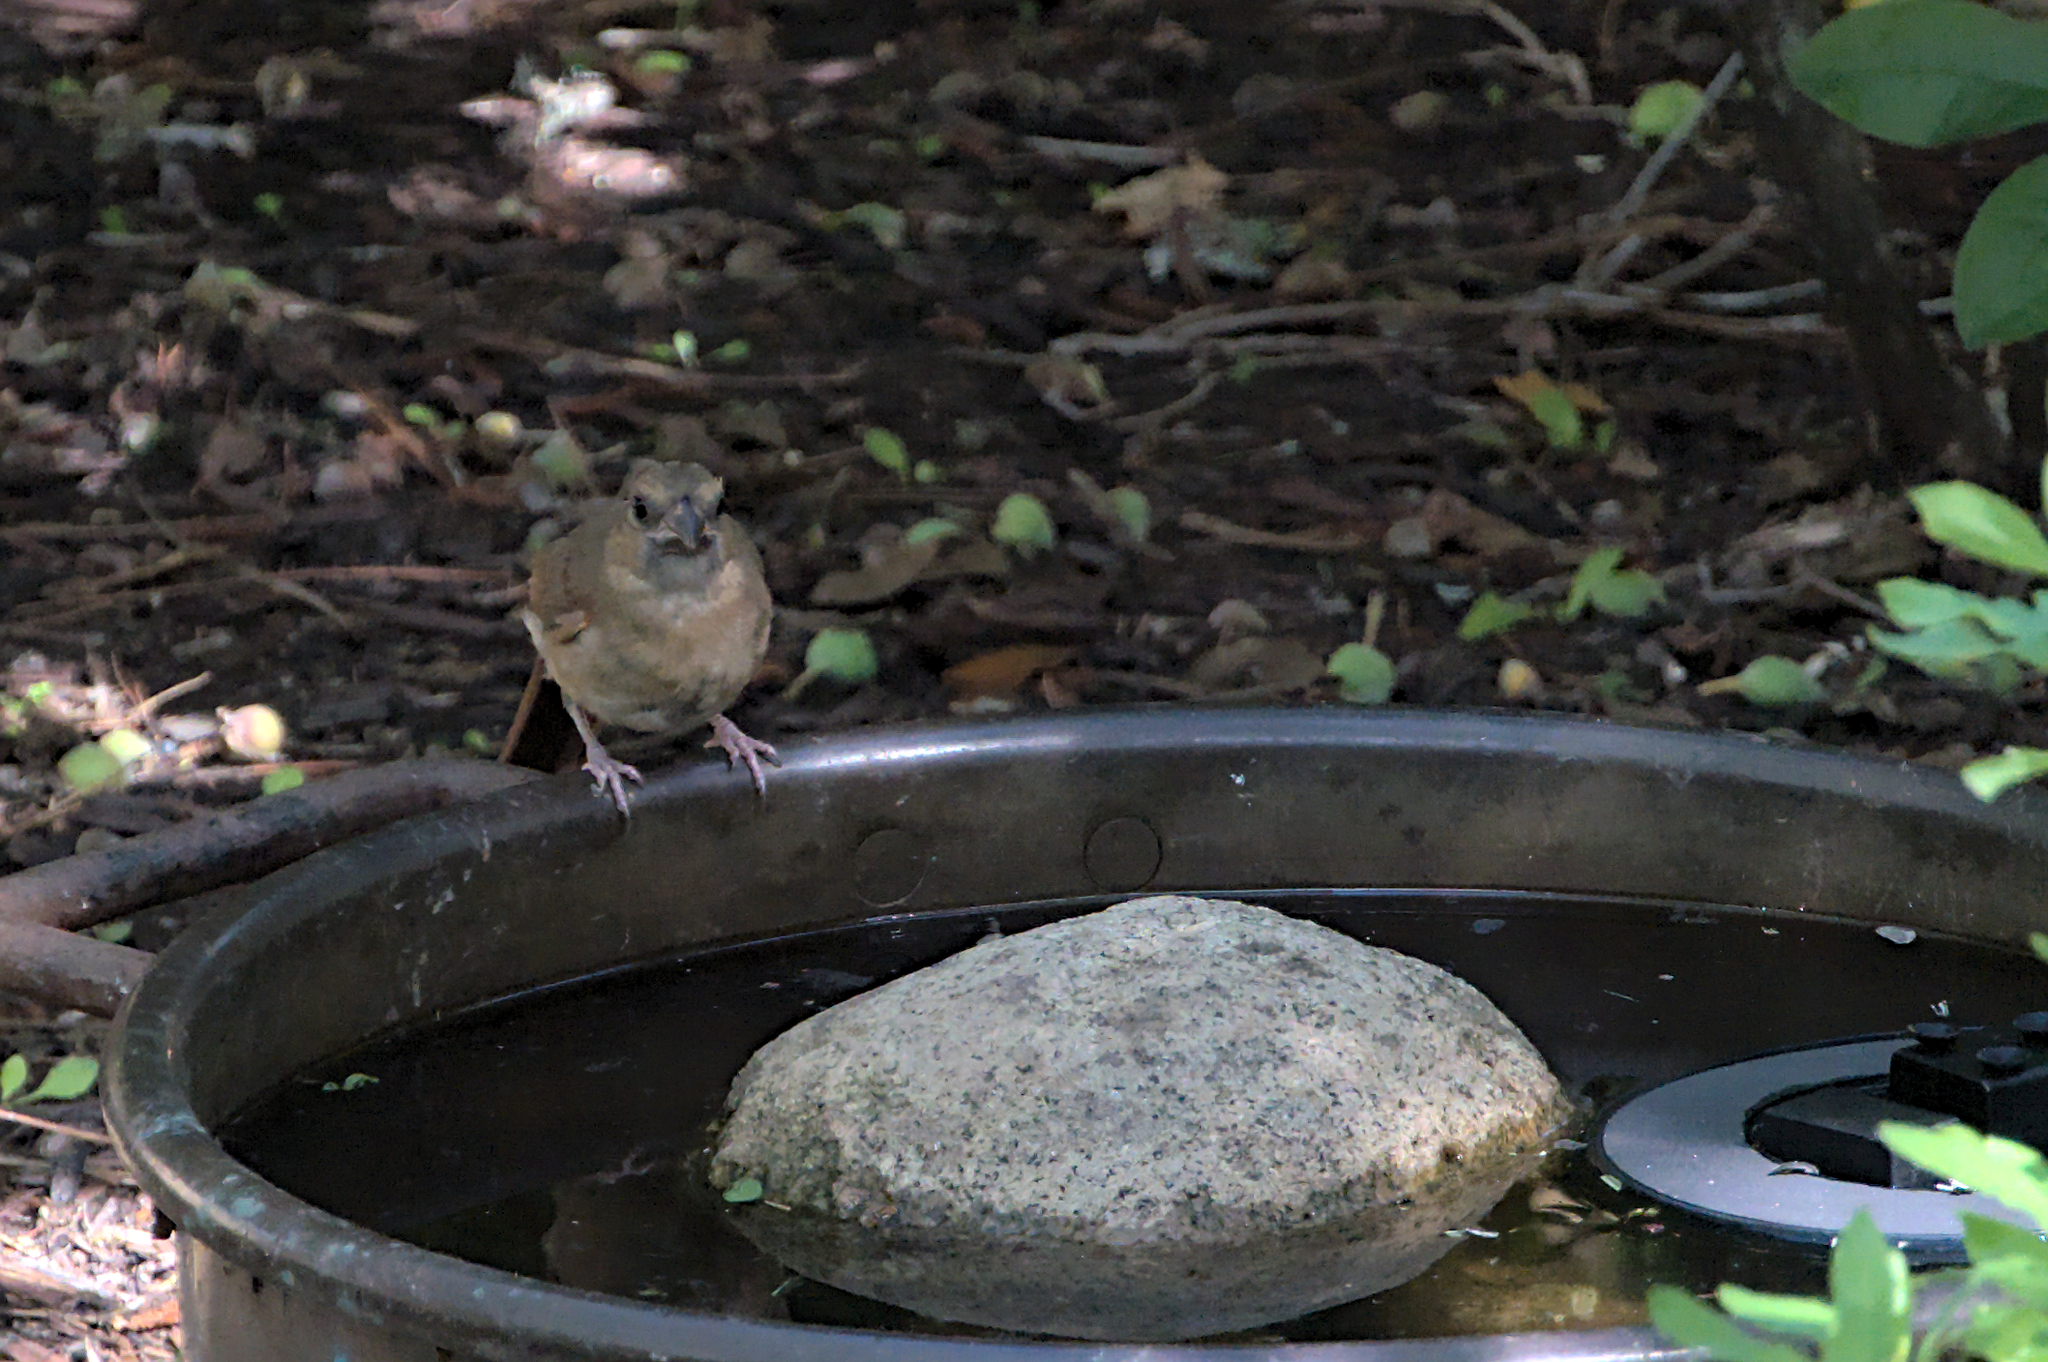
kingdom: Animalia
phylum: Chordata
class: Aves
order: Passeriformes
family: Paridae
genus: Poecile
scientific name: Poecile atricapillus
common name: Black-capped chickadee
